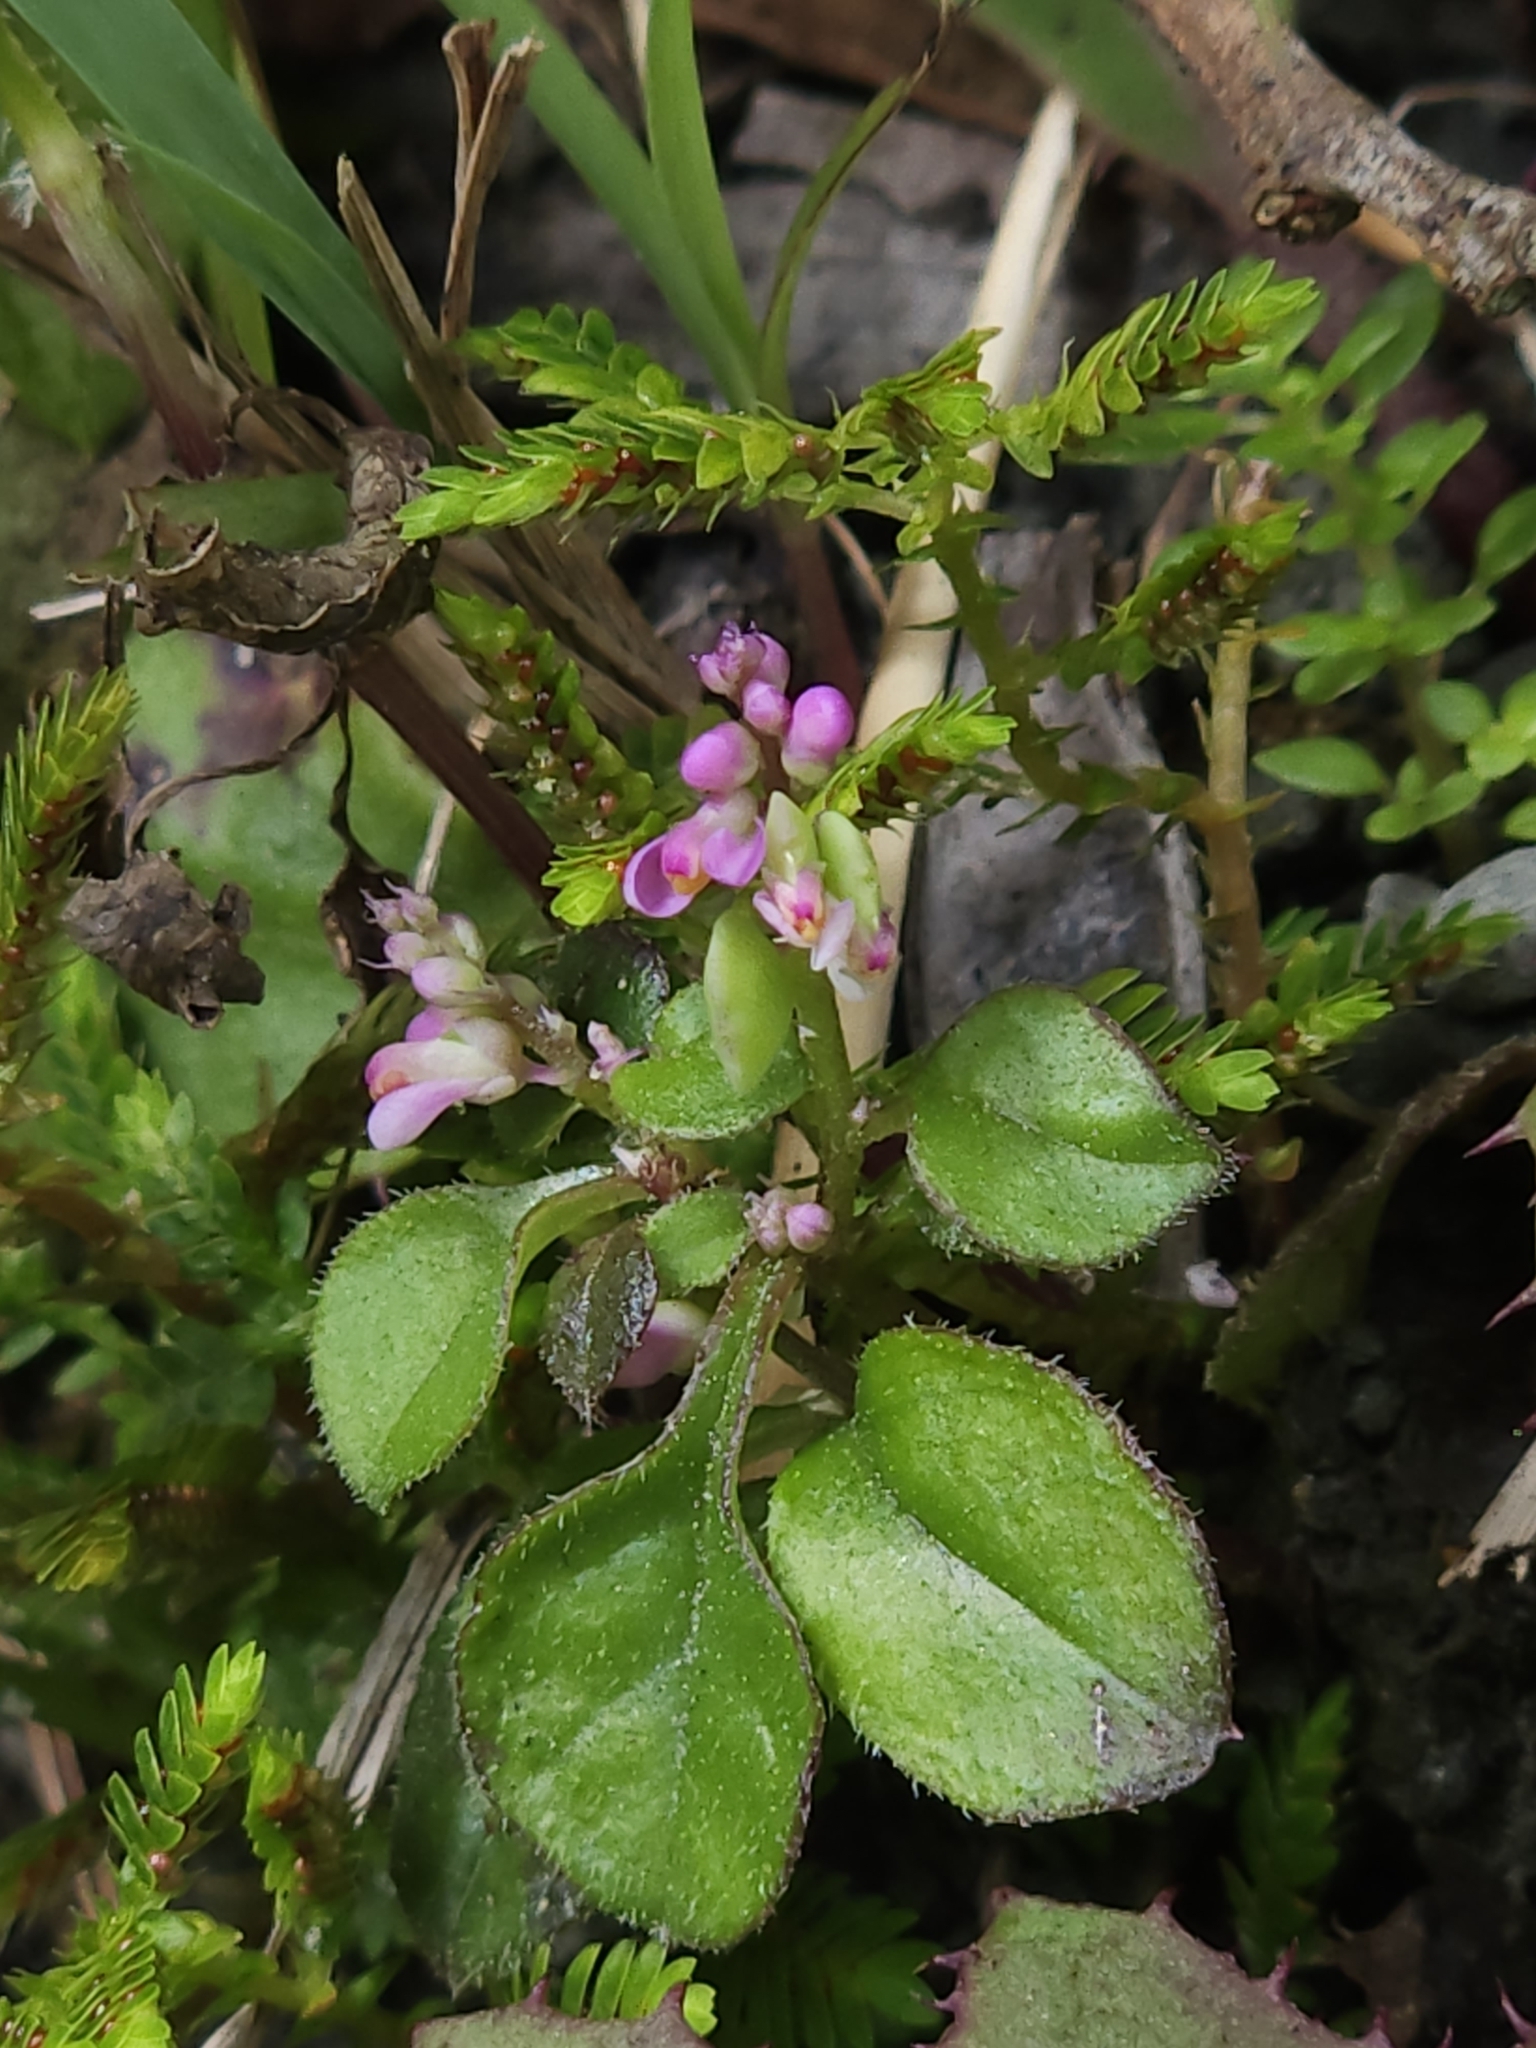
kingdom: Plantae
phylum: Tracheophyta
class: Magnoliopsida
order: Fabales
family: Polygalaceae
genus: Polygala
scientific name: Polygala tatarinowii
